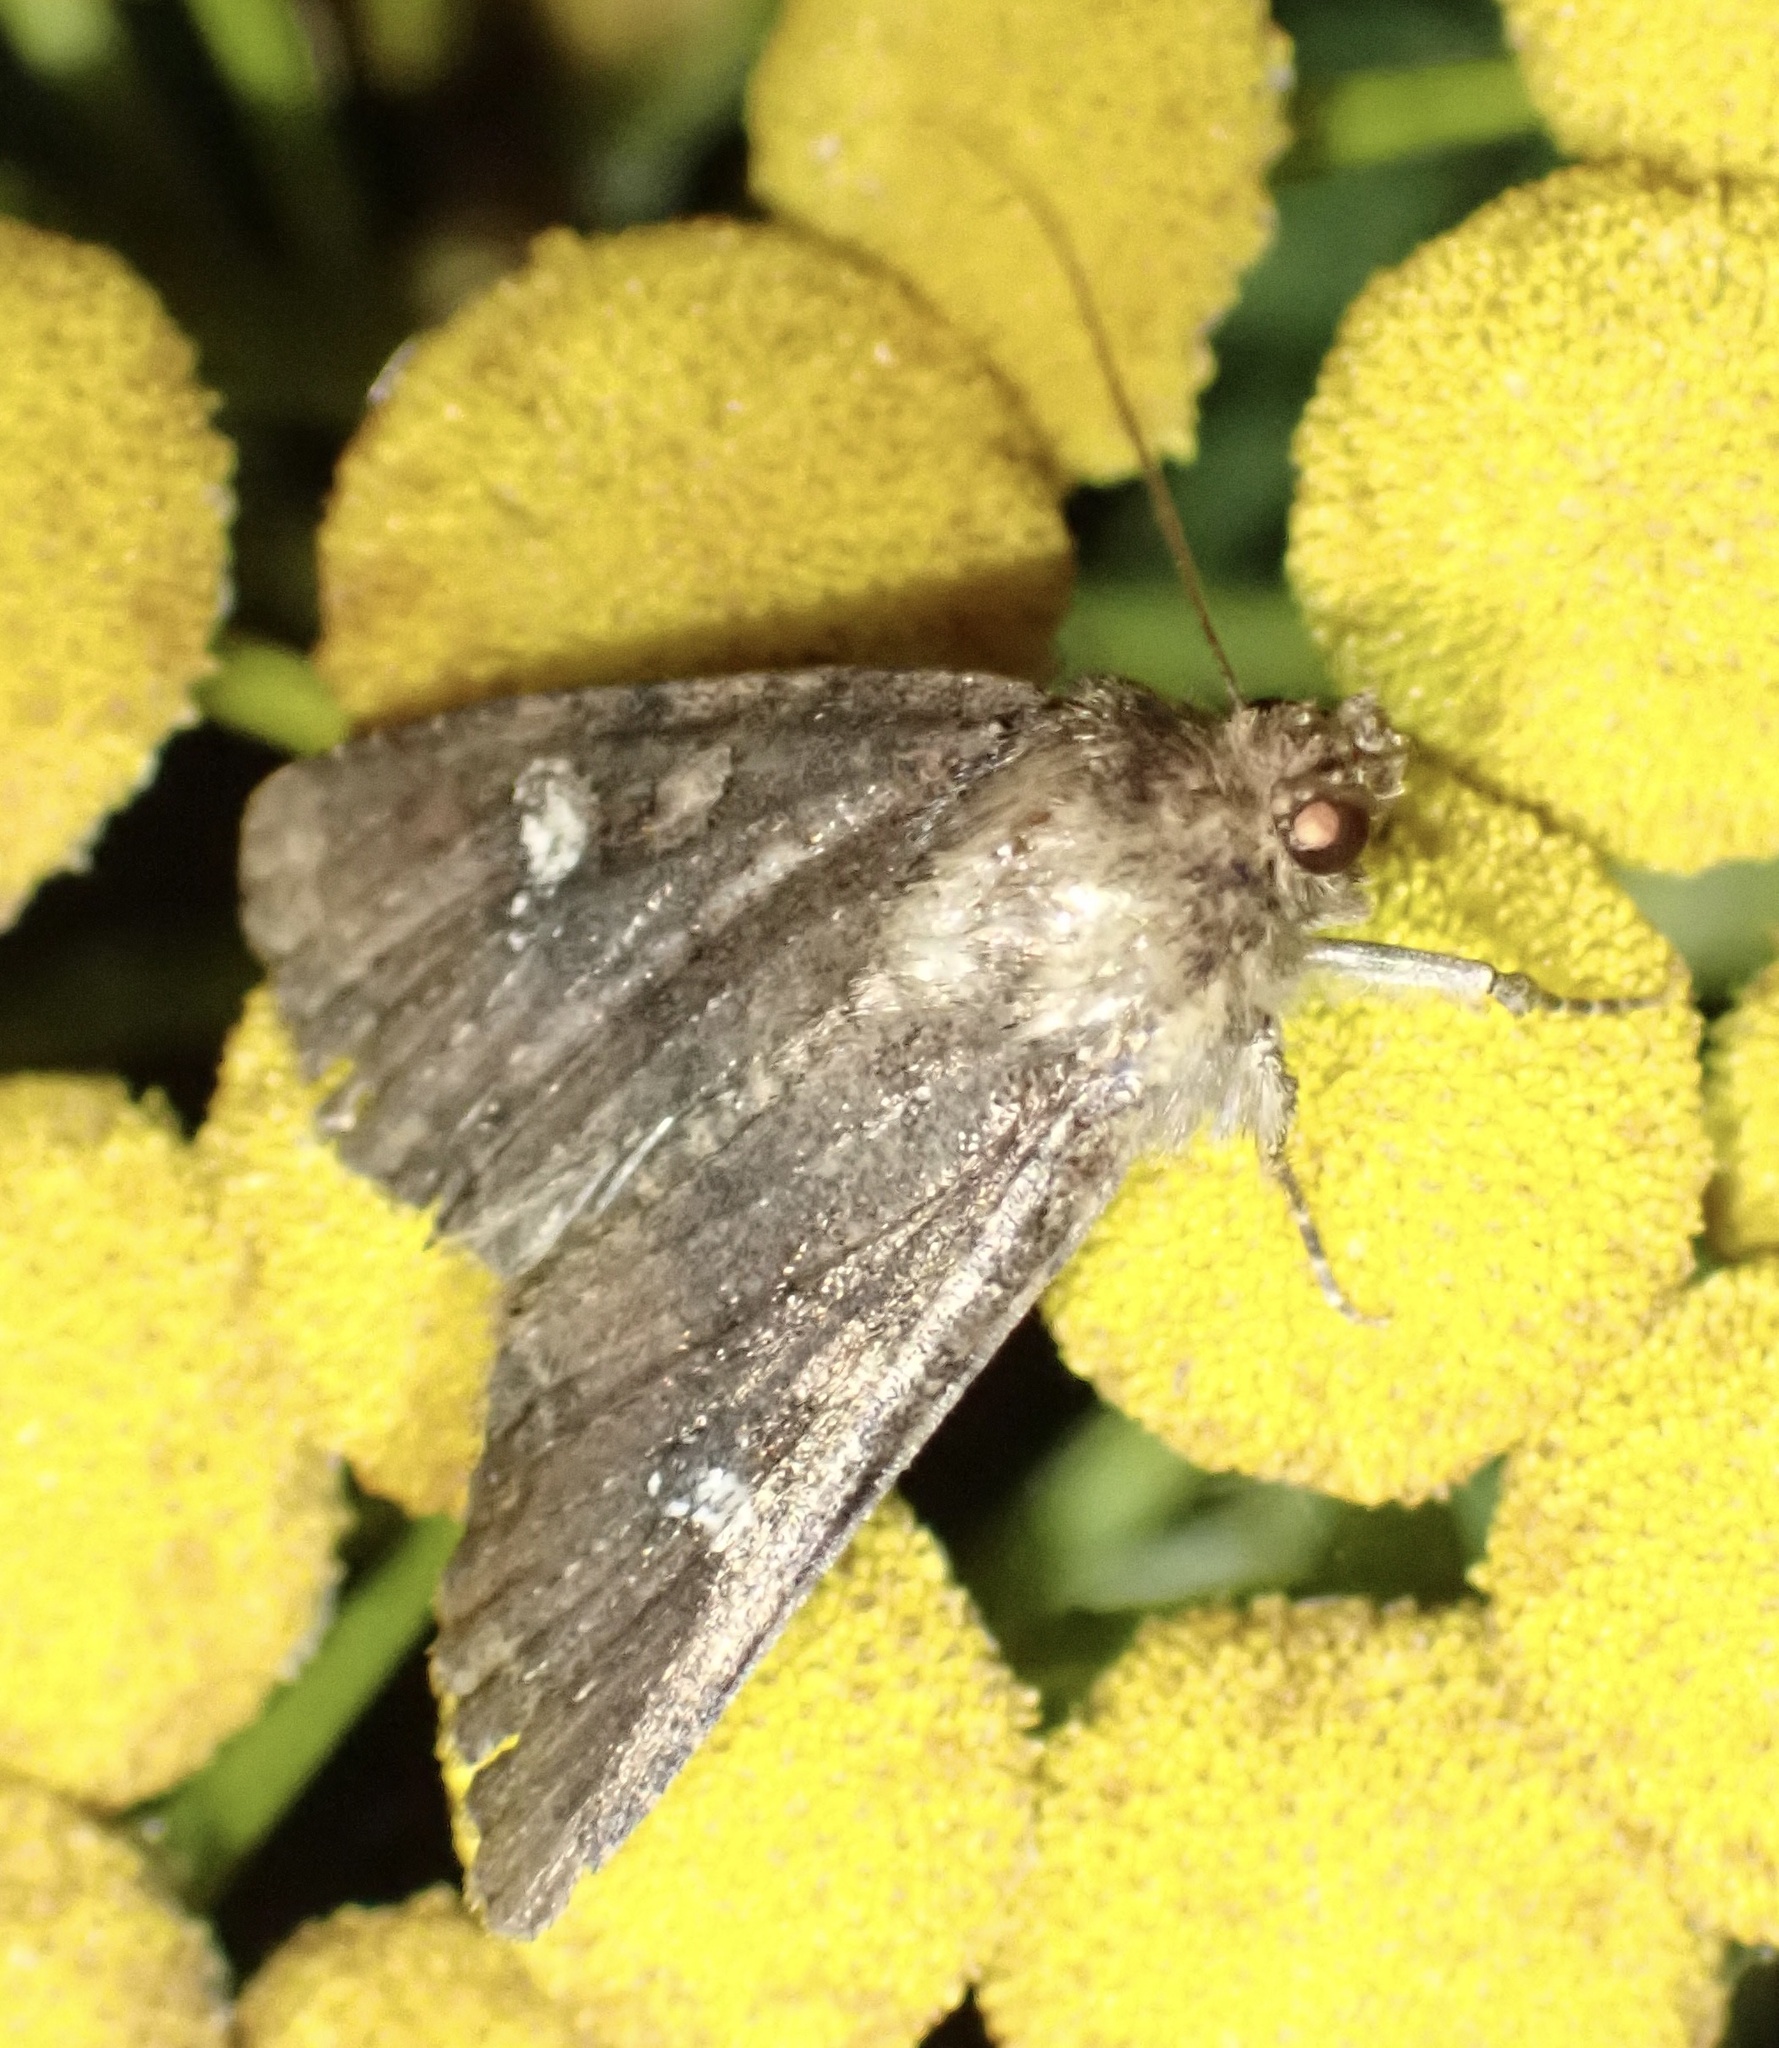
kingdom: Animalia
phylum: Arthropoda
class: Insecta
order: Lepidoptera
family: Noctuidae
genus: Mesapamea
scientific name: Mesapamea
